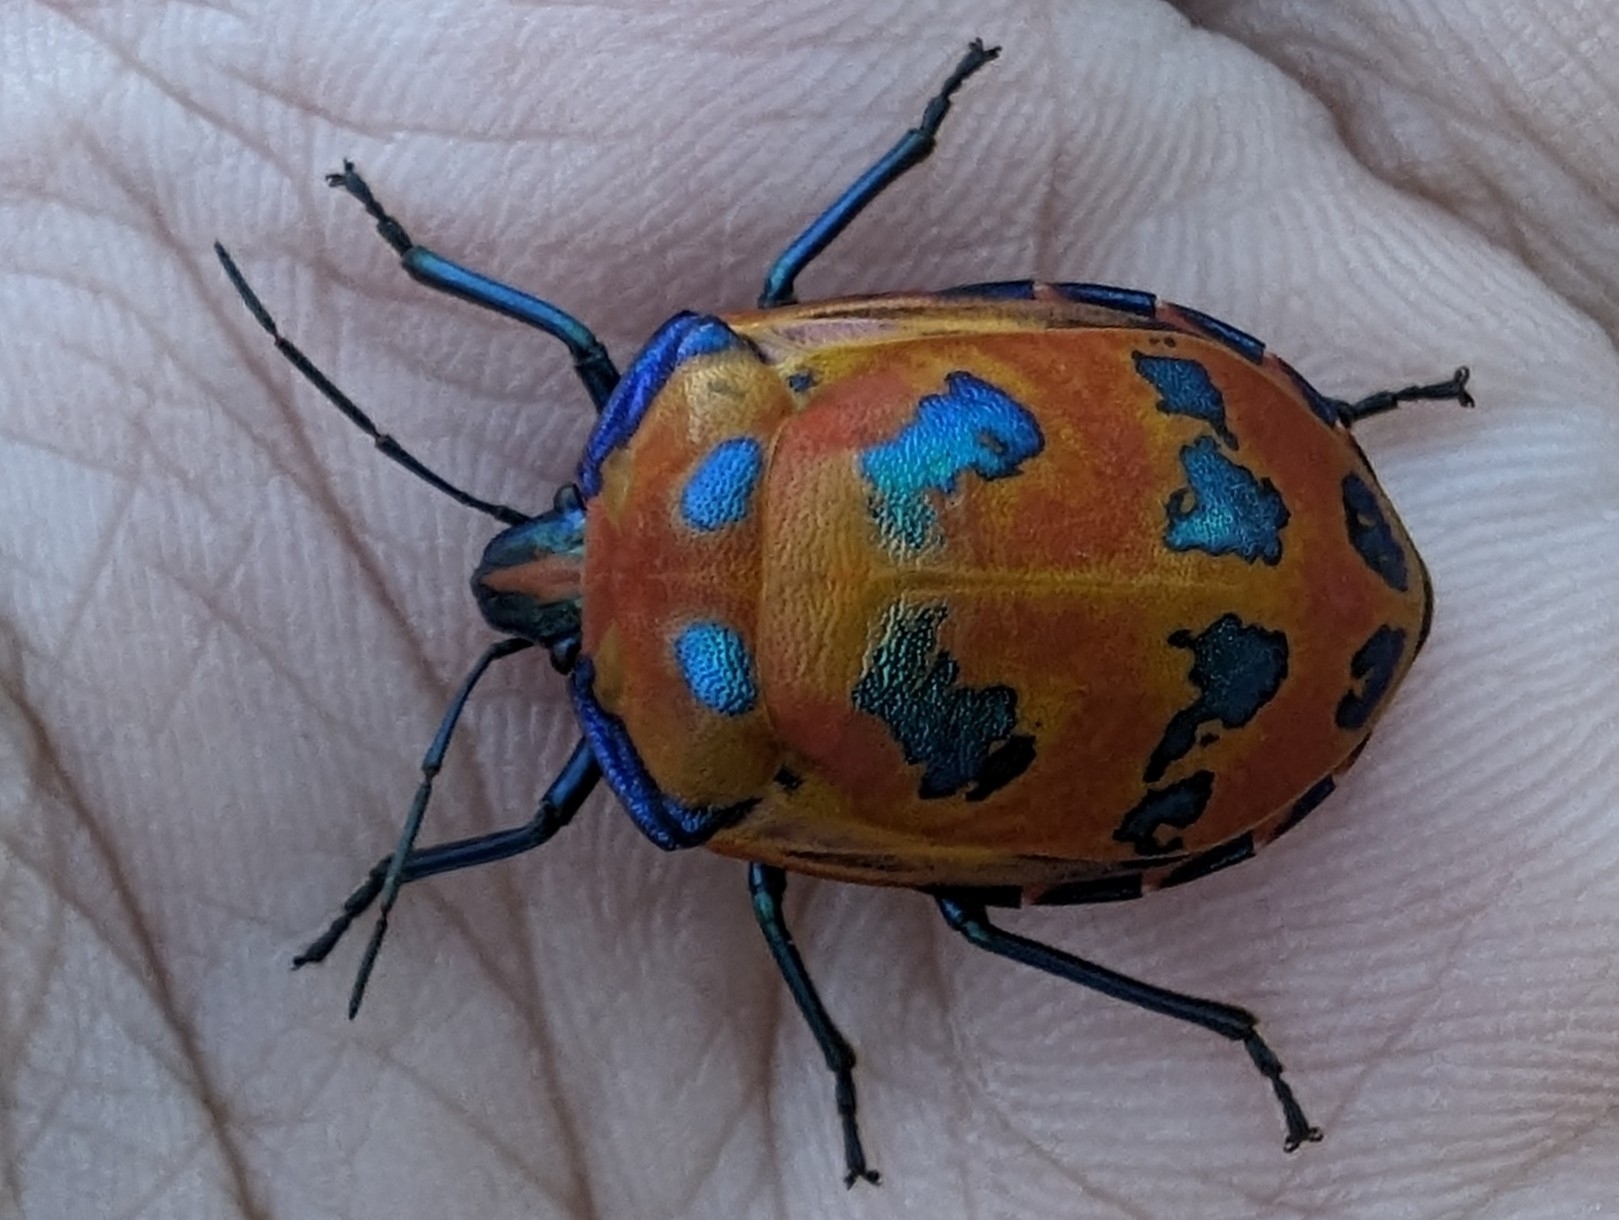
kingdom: Animalia
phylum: Arthropoda
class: Insecta
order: Hemiptera
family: Scutelleridae
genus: Tectocoris
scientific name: Tectocoris diophthalmus
